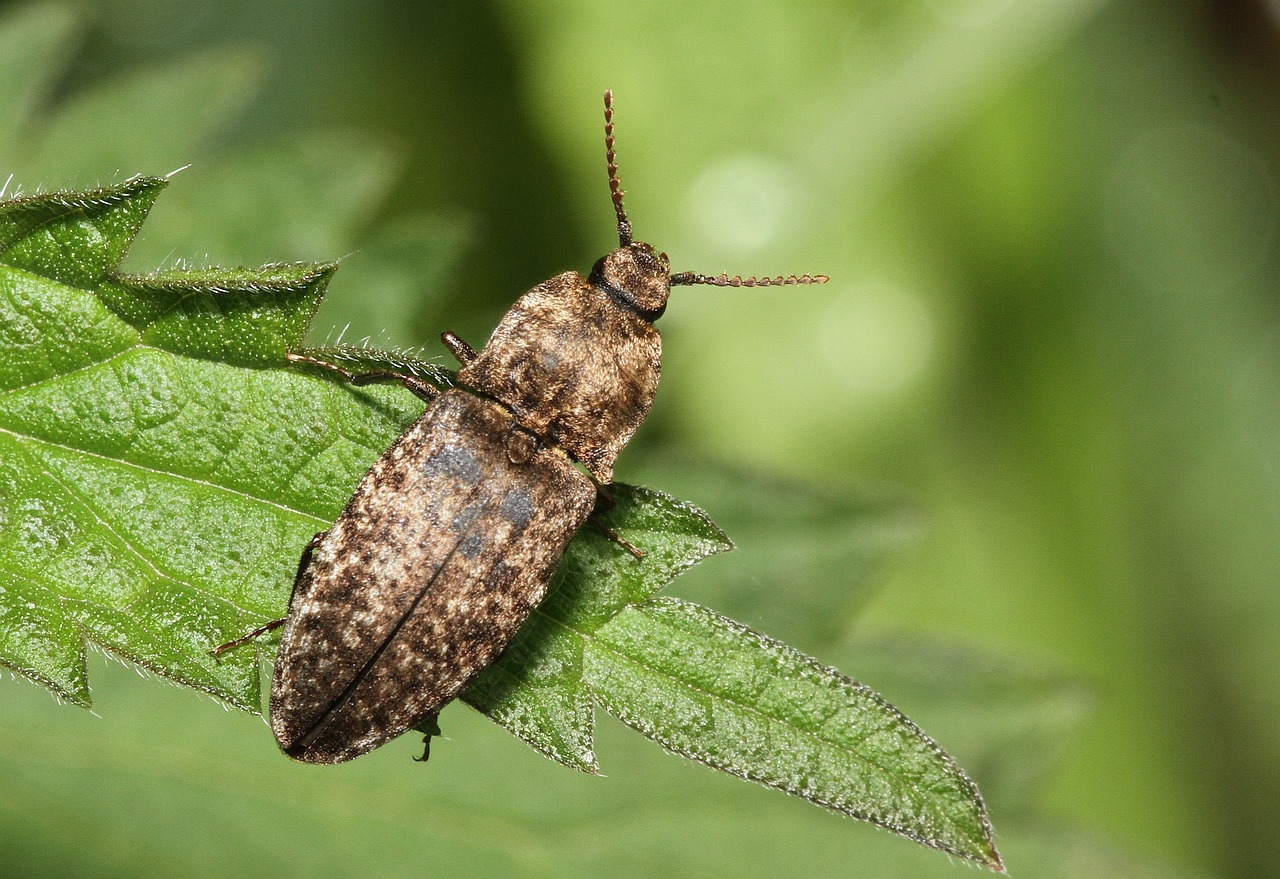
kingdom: Animalia
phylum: Arthropoda
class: Insecta
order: Coleoptera
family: Elateridae
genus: Agrypnus
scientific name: Agrypnus murinus
